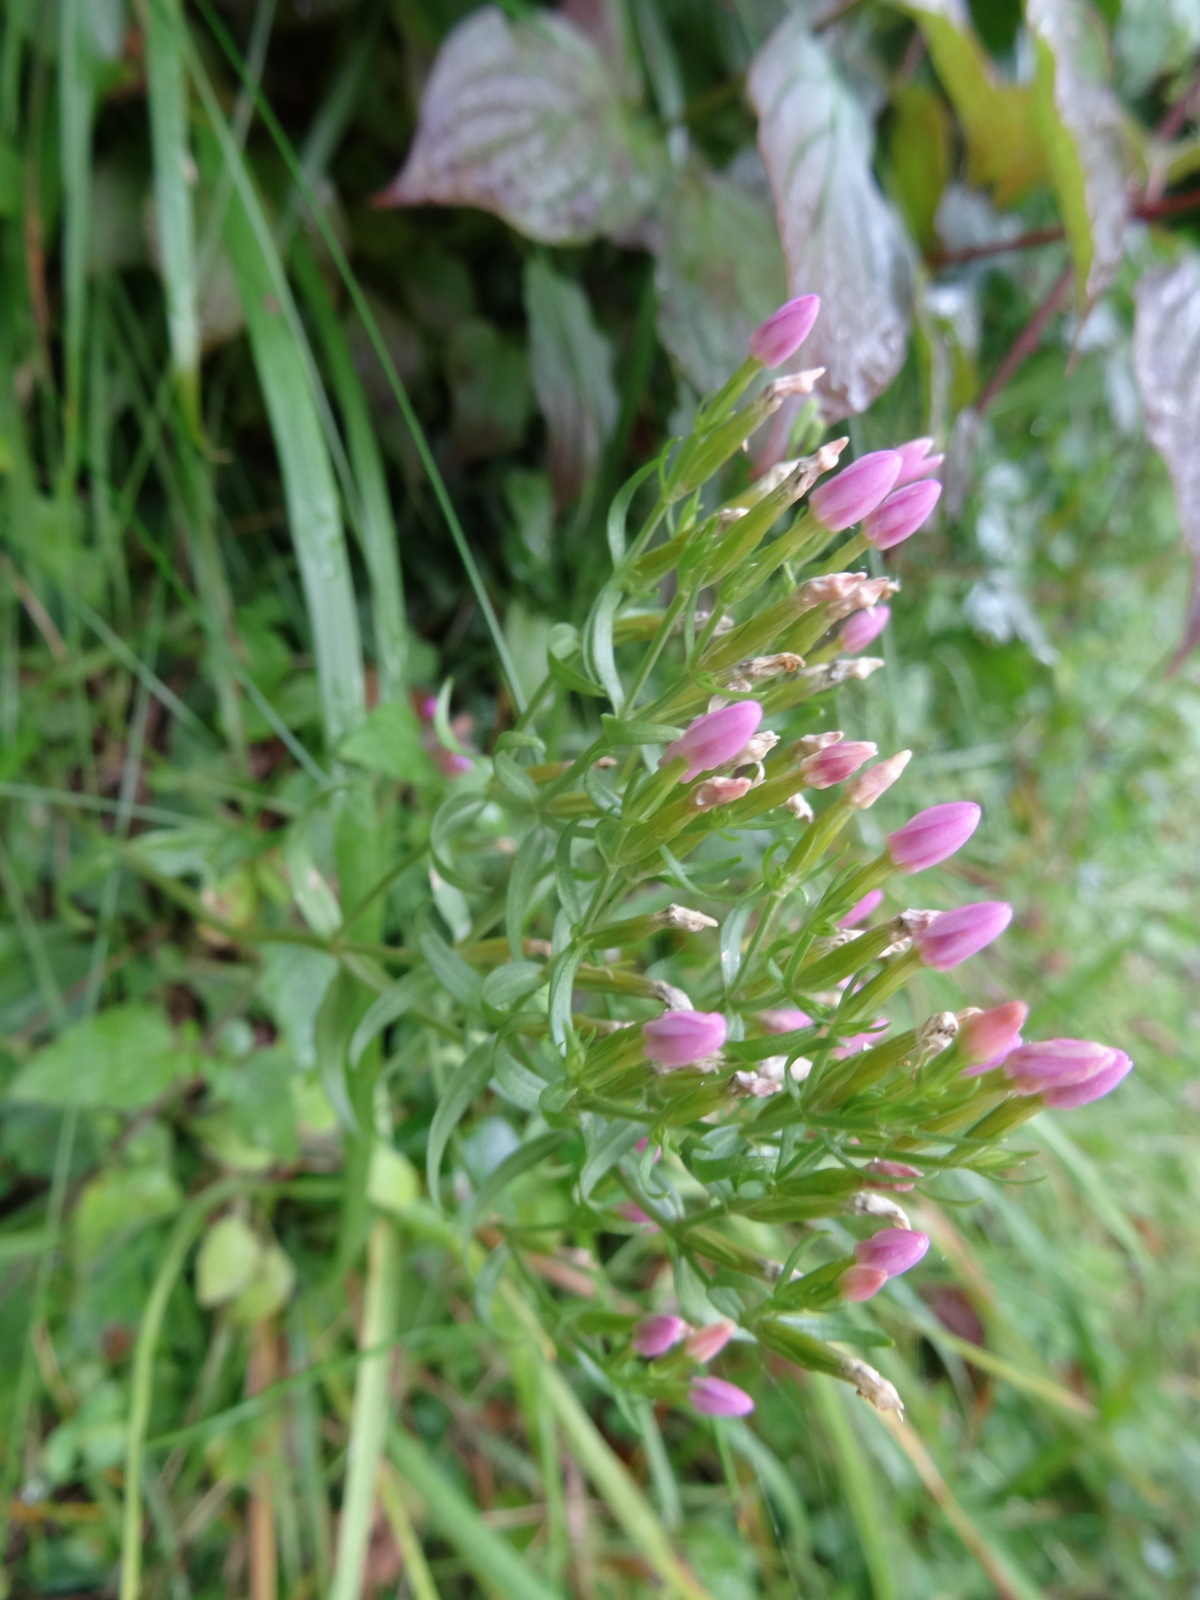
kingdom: Plantae
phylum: Tracheophyta
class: Magnoliopsida
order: Gentianales
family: Gentianaceae
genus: Centaurium
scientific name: Centaurium erythraea
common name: Common centaury
